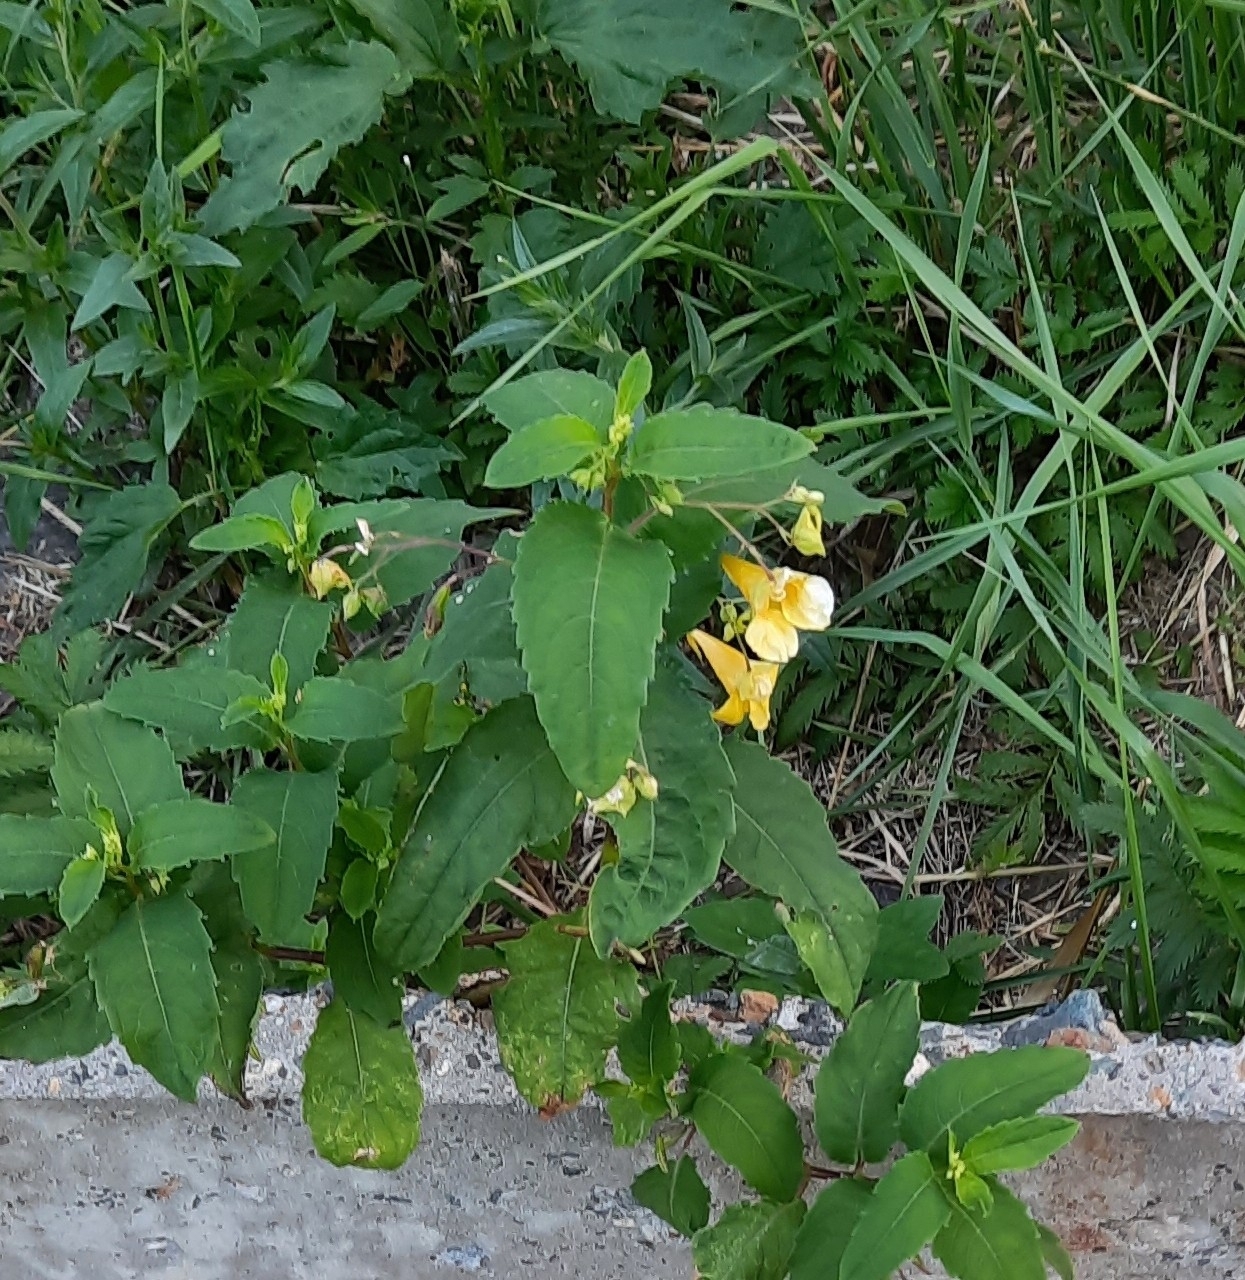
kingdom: Plantae
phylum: Tracheophyta
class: Magnoliopsida
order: Ericales
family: Balsaminaceae
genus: Impatiens
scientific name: Impatiens noli-tangere
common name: Touch-me-not balsam
